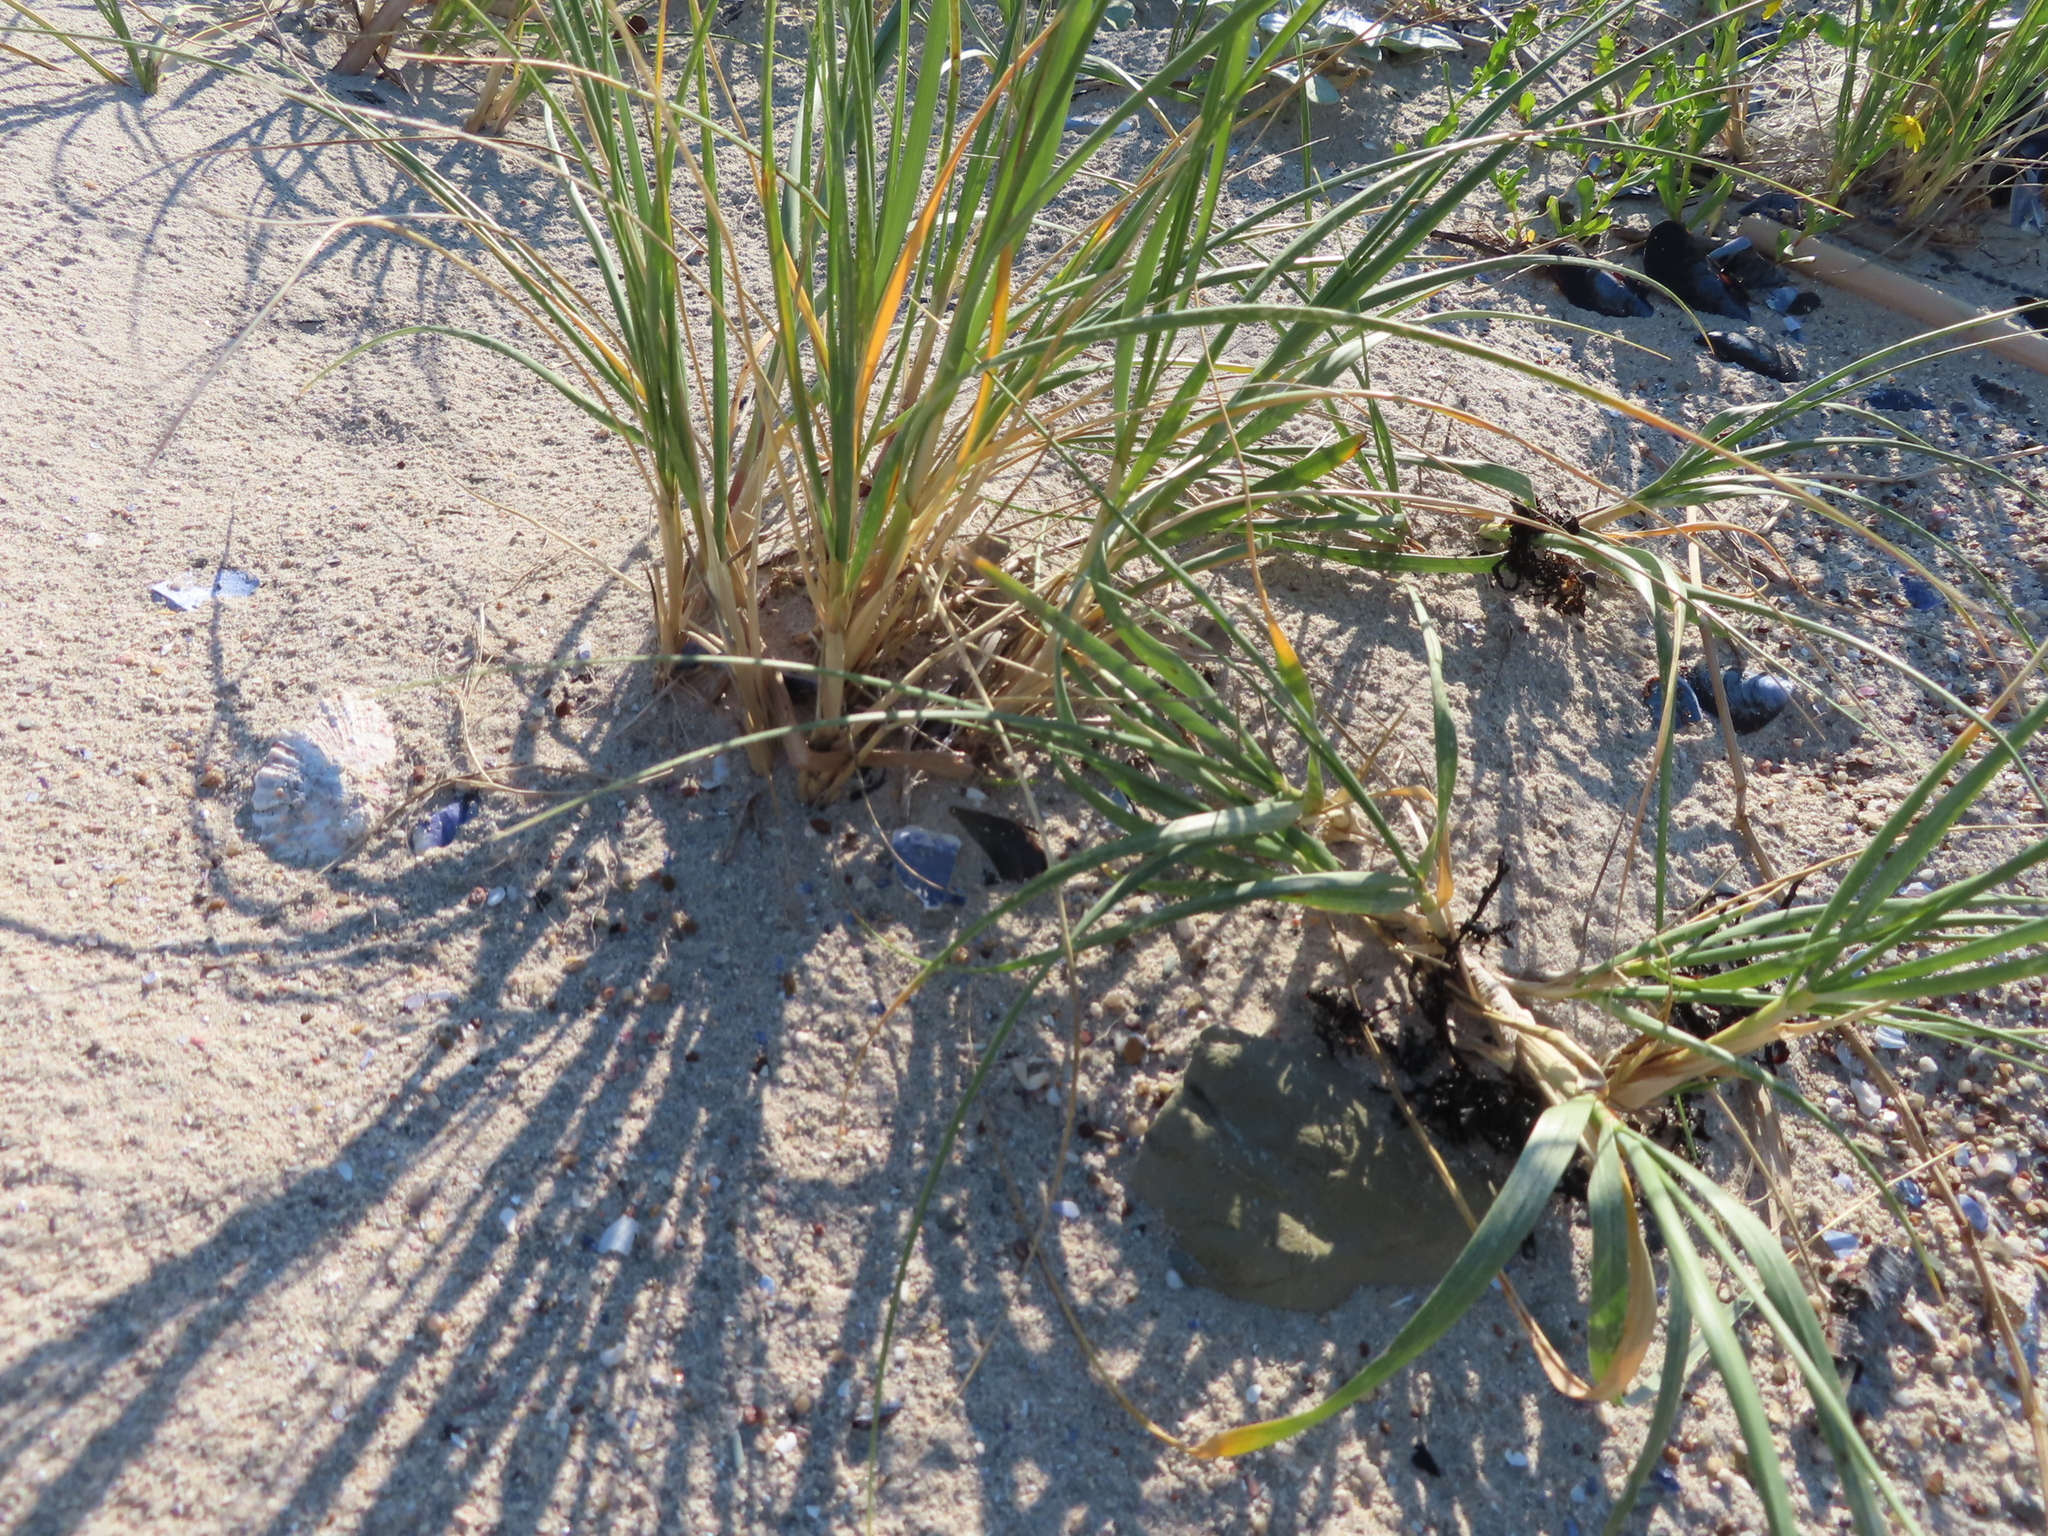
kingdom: Plantae
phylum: Tracheophyta
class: Liliopsida
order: Poales
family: Poaceae
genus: Thinopyrum
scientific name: Thinopyrum distichum
